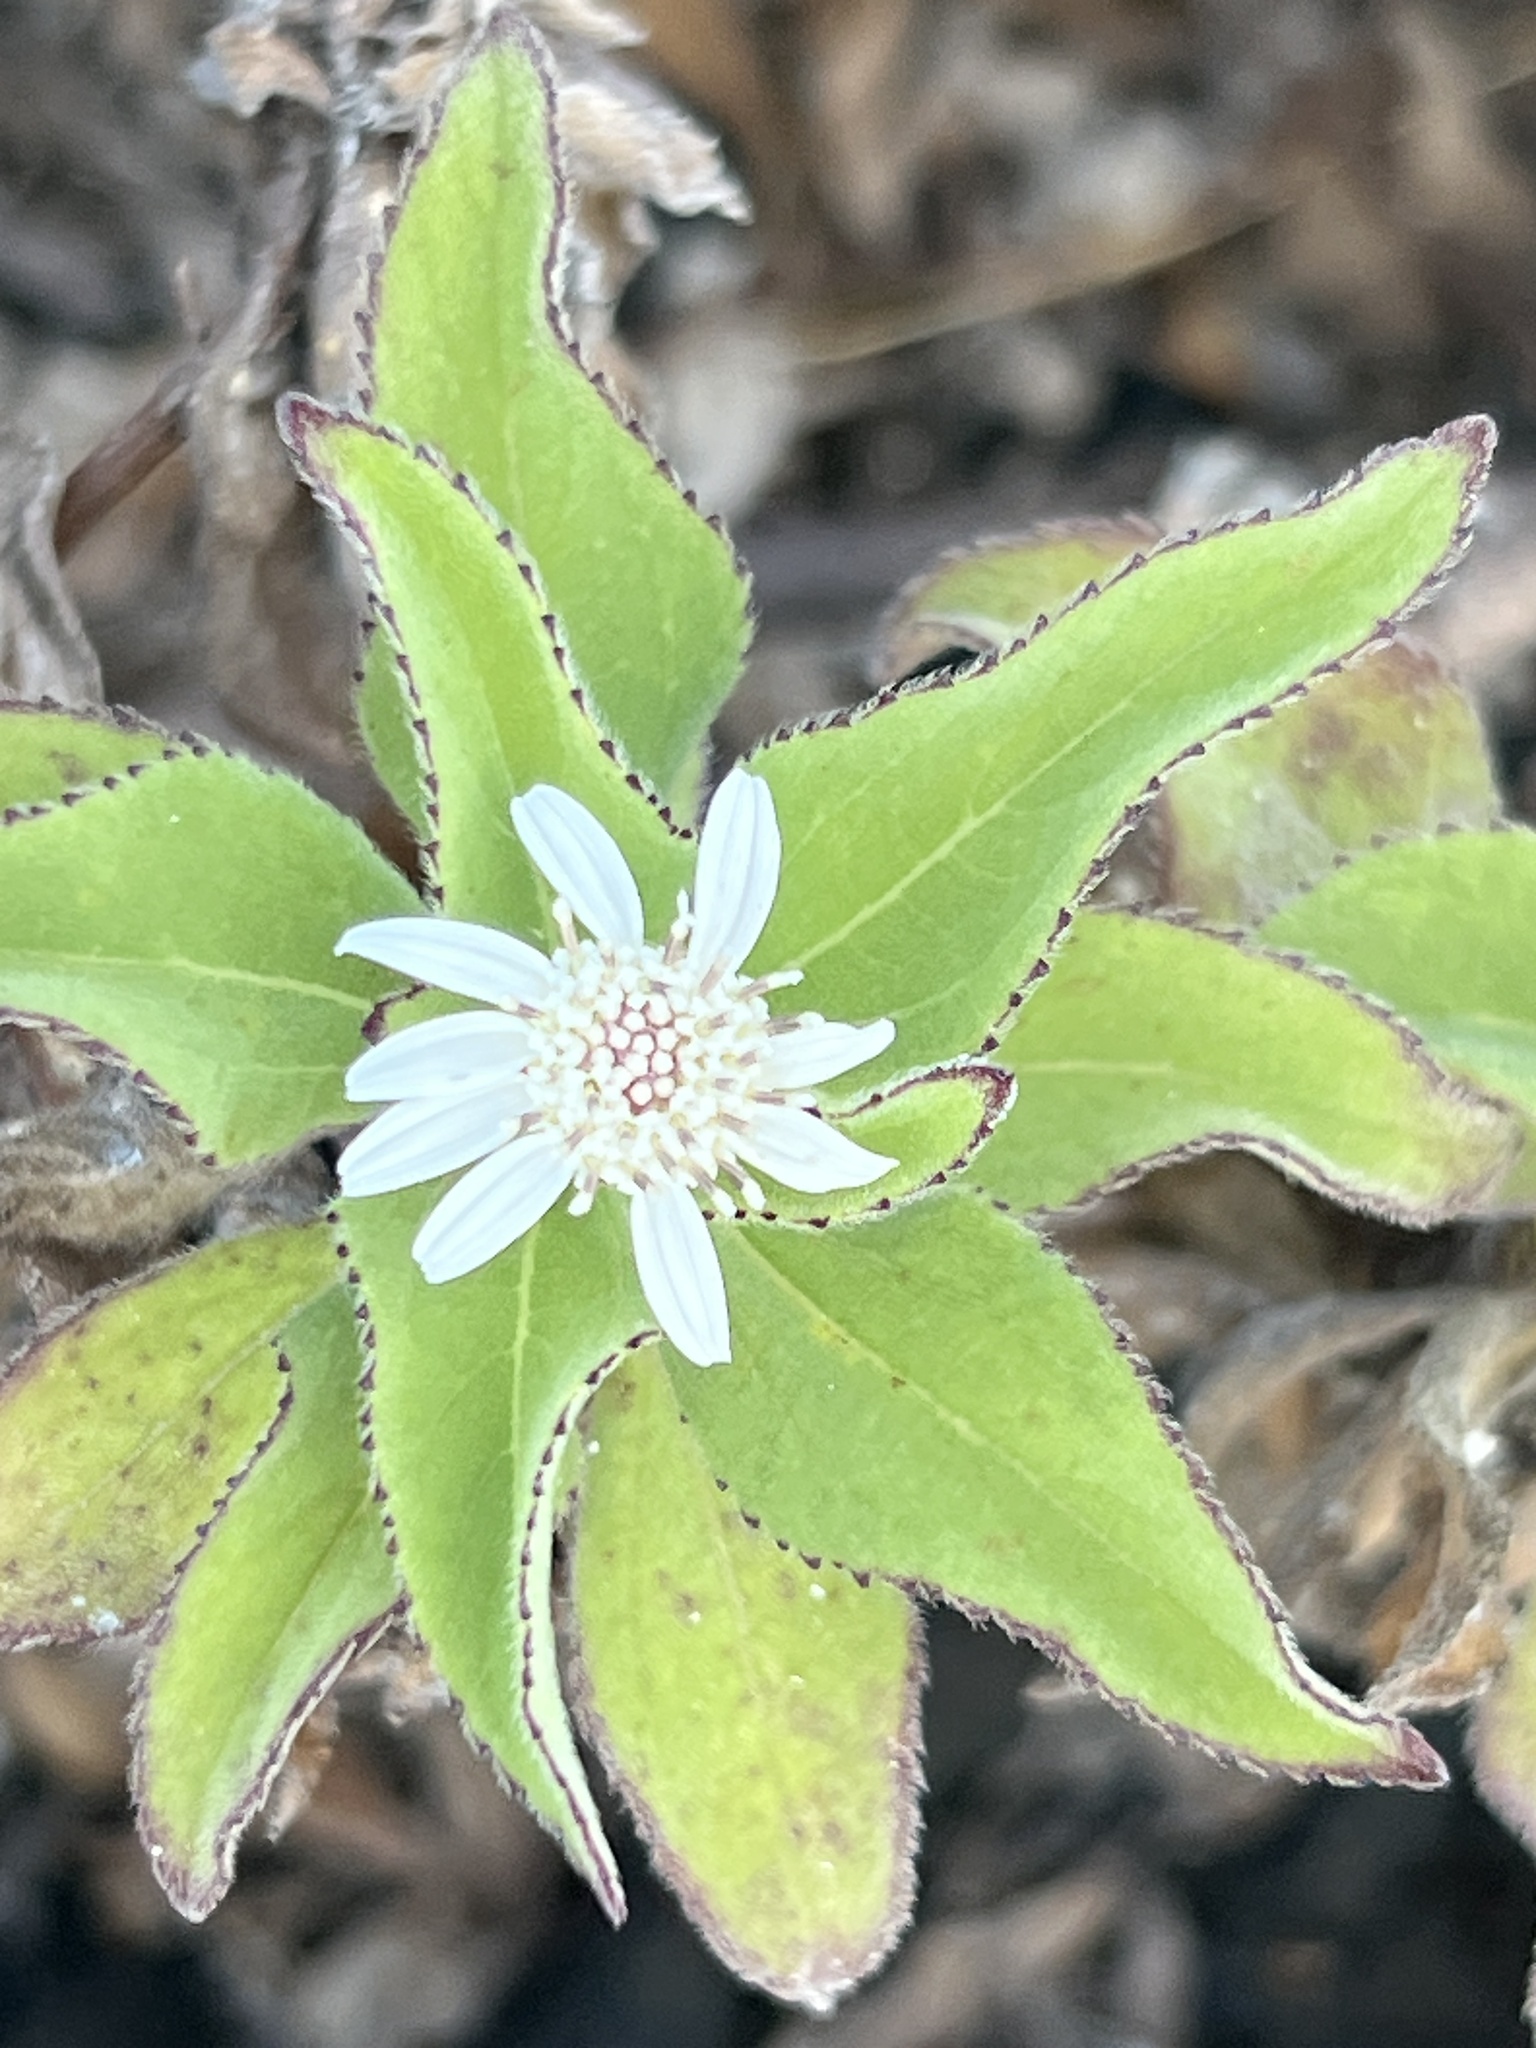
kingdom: Plantae
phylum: Tracheophyta
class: Magnoliopsida
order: Asterales
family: Asteraceae
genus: Scalesia
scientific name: Scalesia affinis
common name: Radiate-headed scalesia
